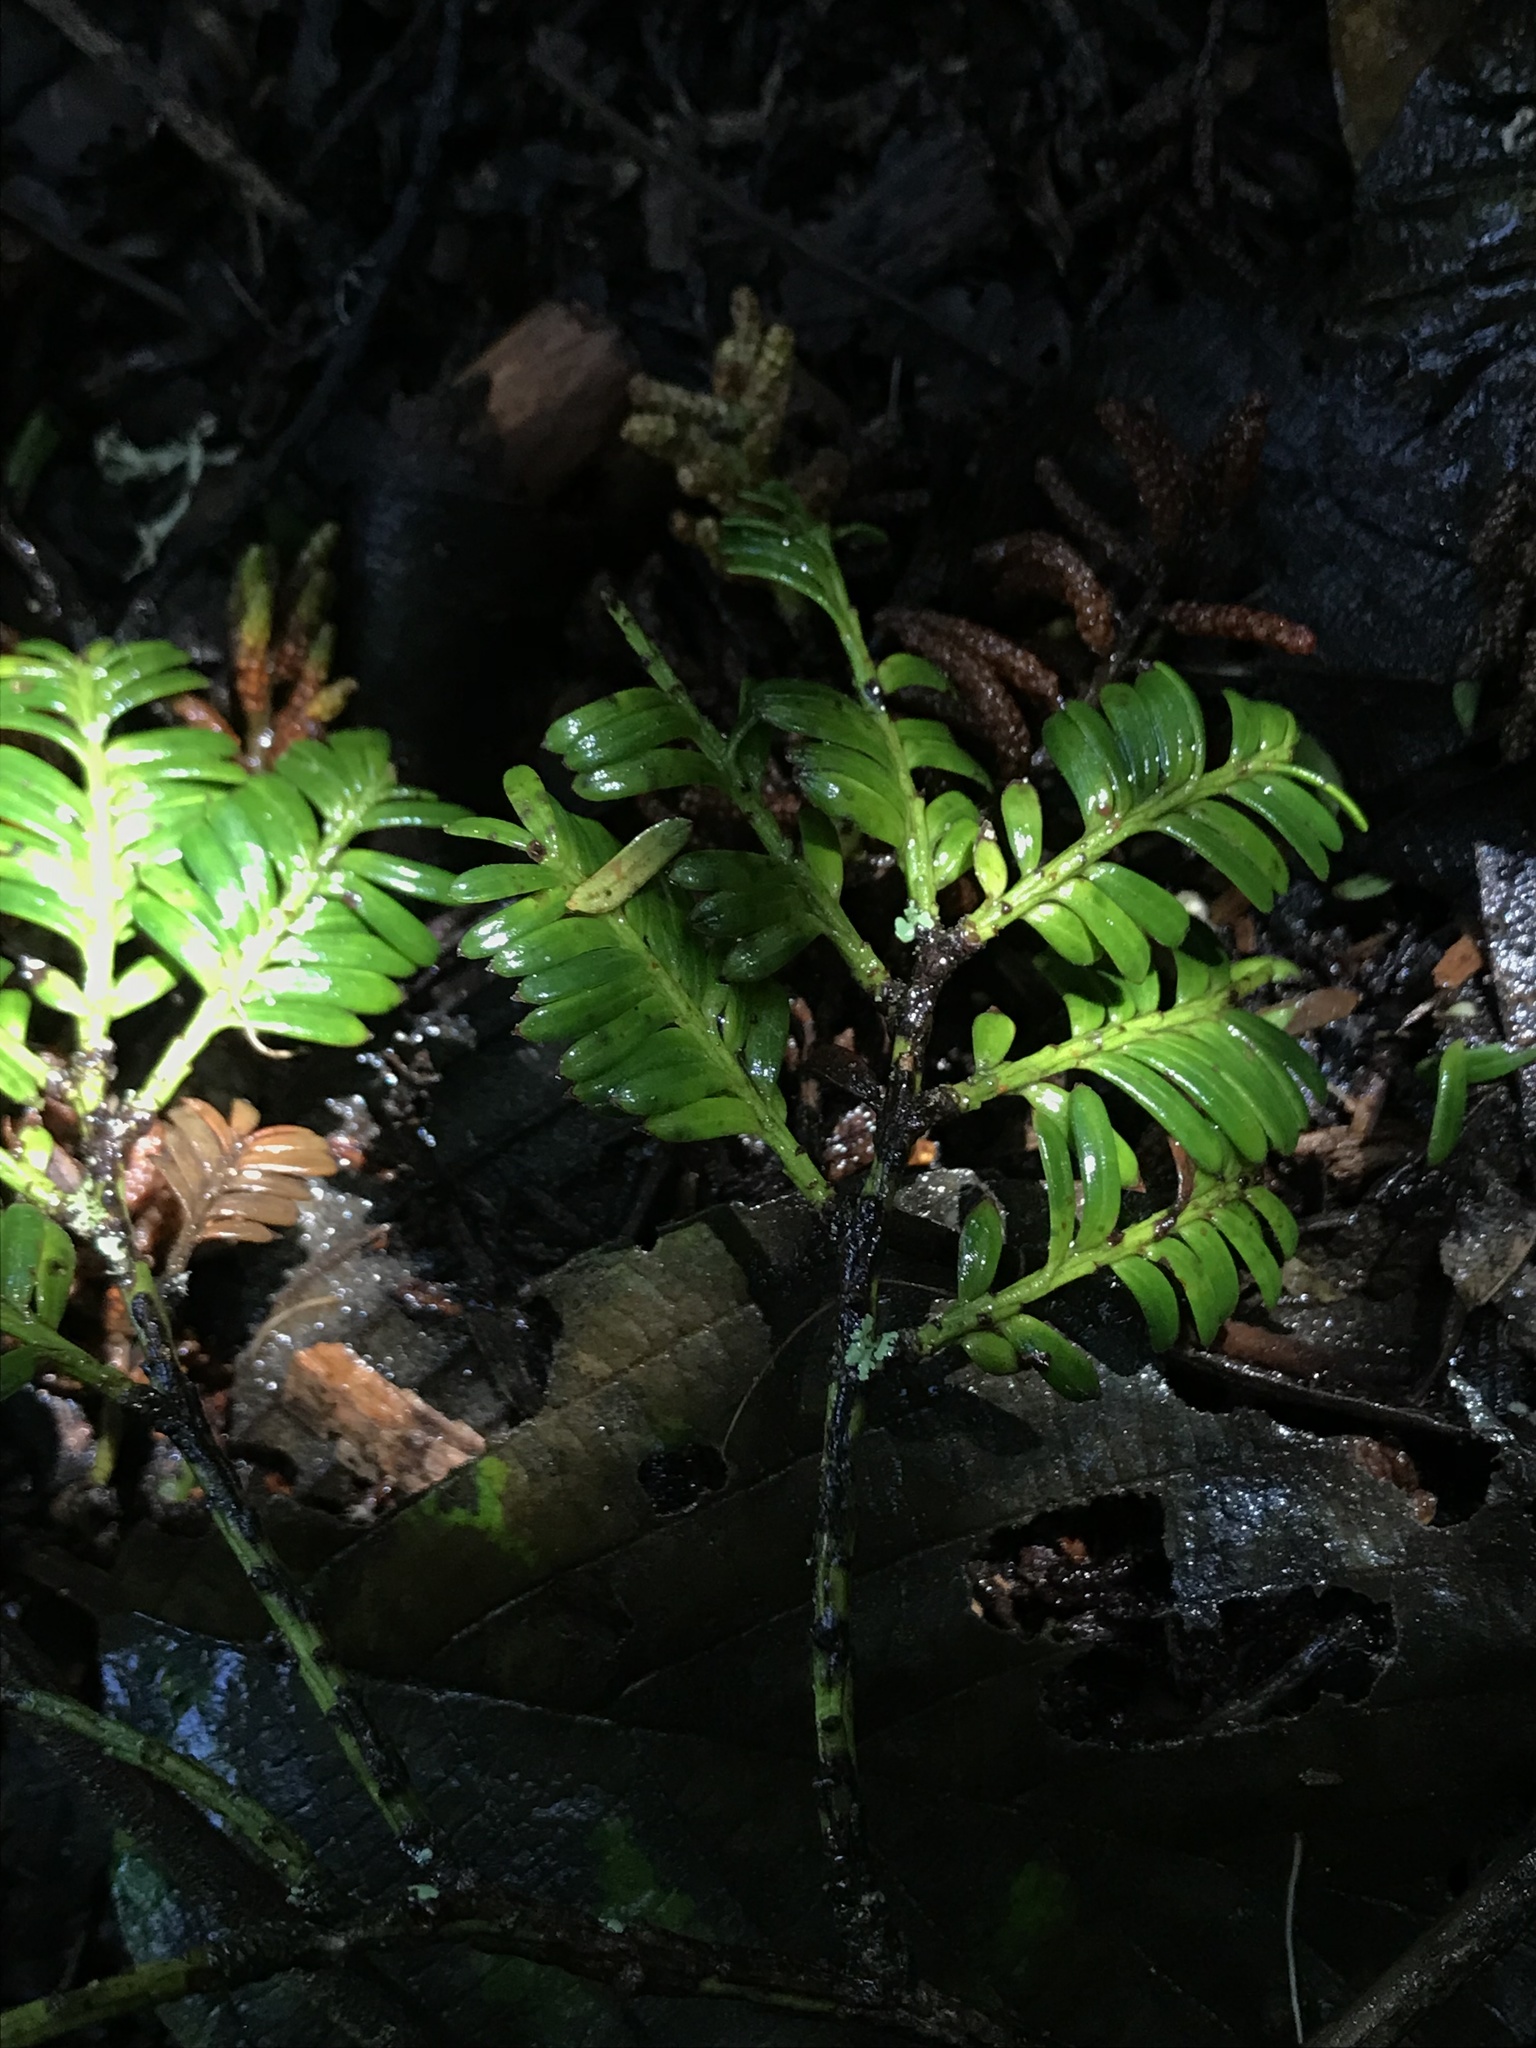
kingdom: Plantae
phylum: Tracheophyta
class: Pinopsida
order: Pinales
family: Podocarpaceae
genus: Prumnopitys
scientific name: Prumnopitys montana
